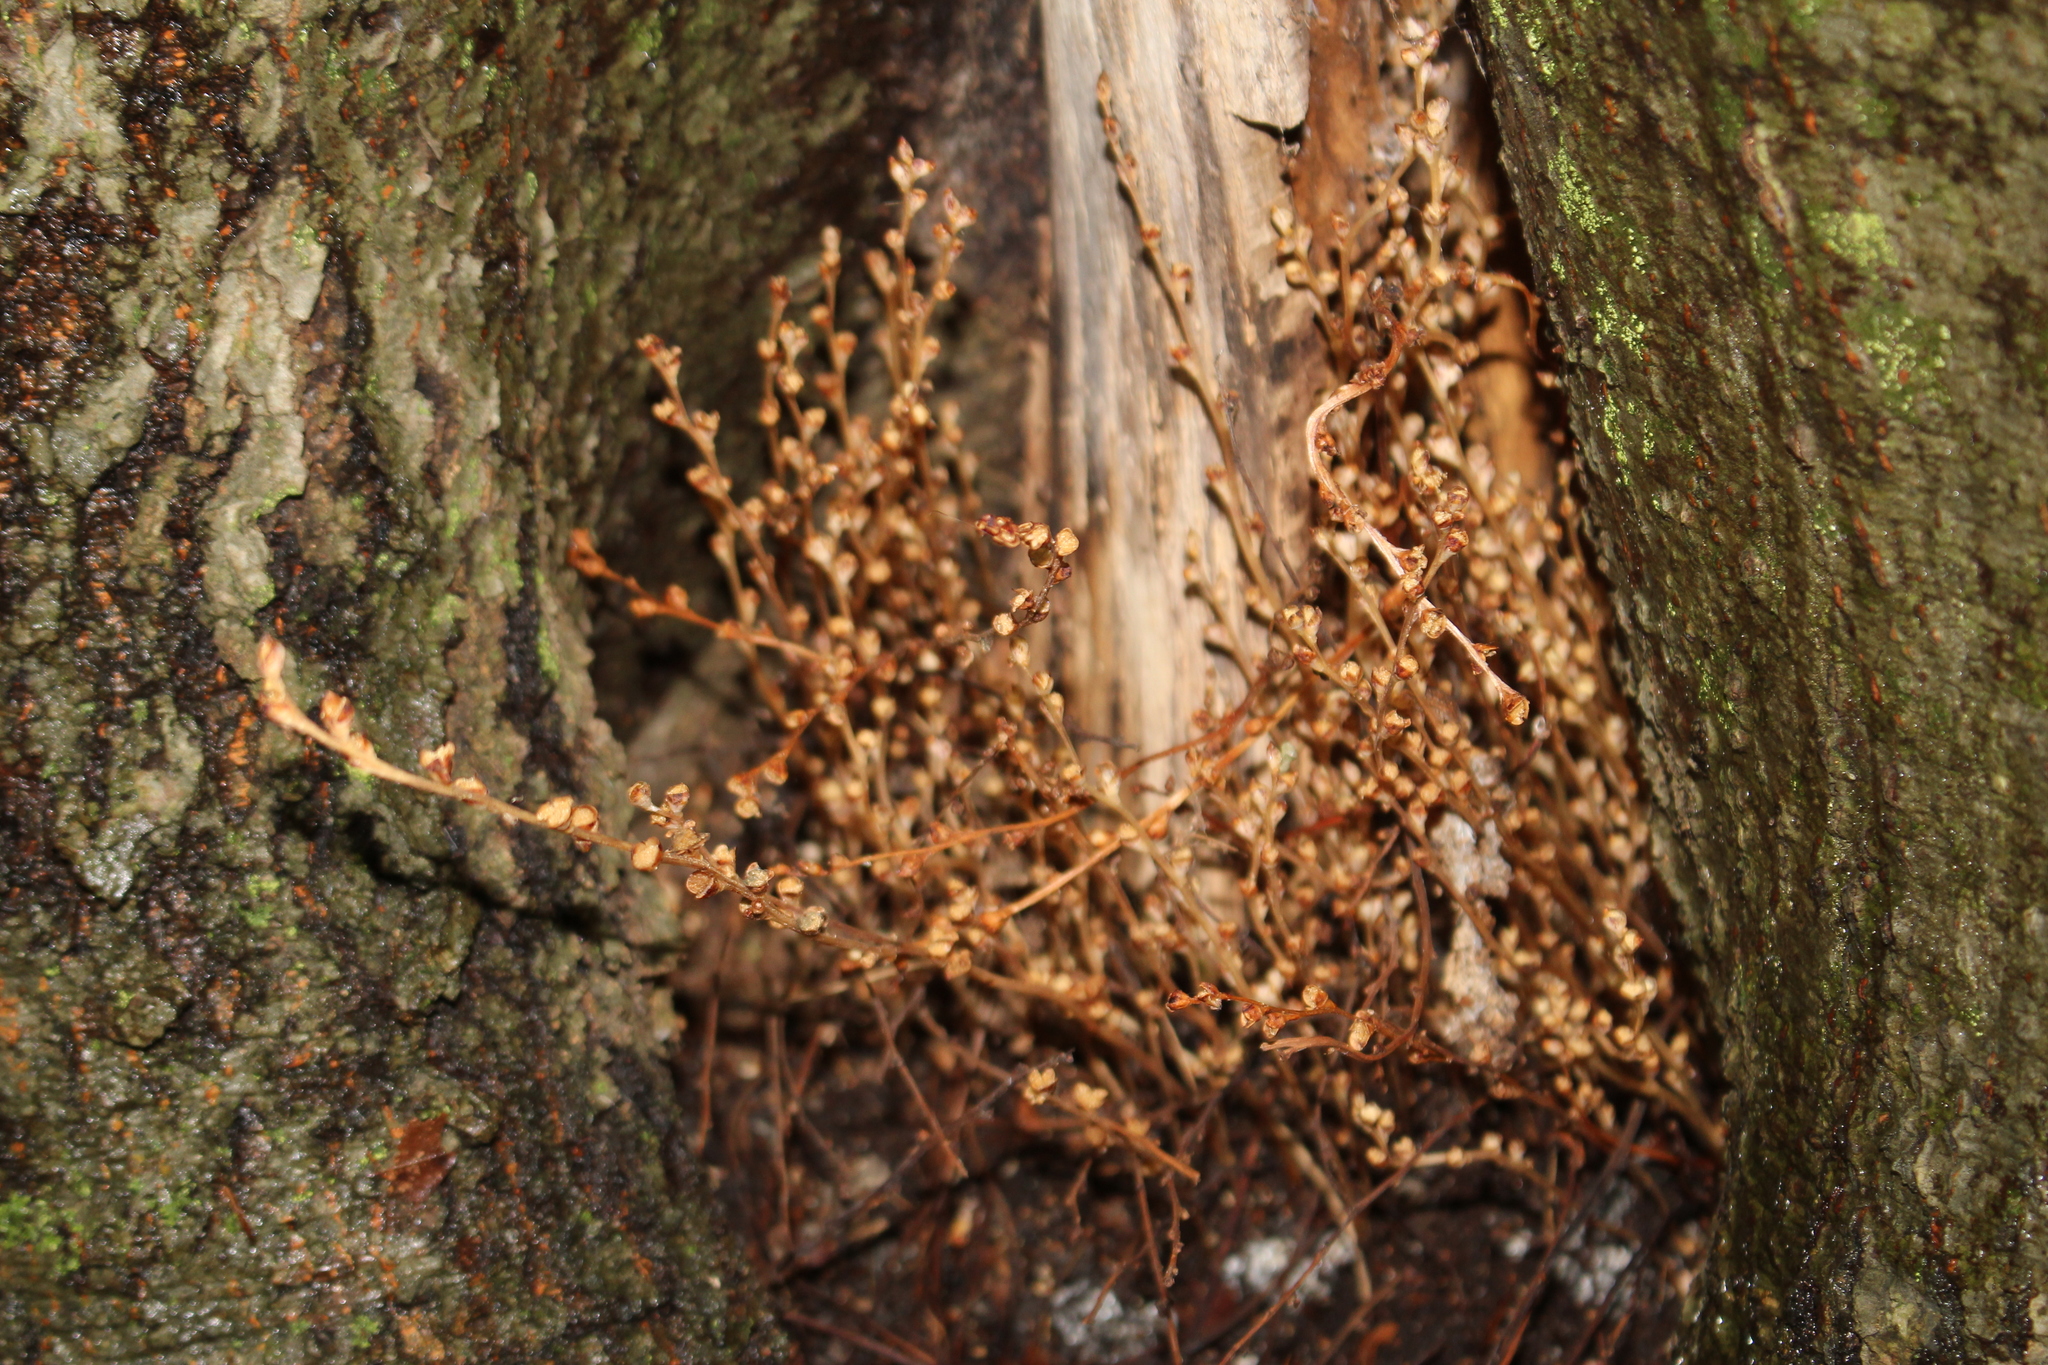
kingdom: Plantae
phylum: Tracheophyta
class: Magnoliopsida
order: Lamiales
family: Orobanchaceae
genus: Epifagus
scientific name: Epifagus virginiana
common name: Beechdrops
